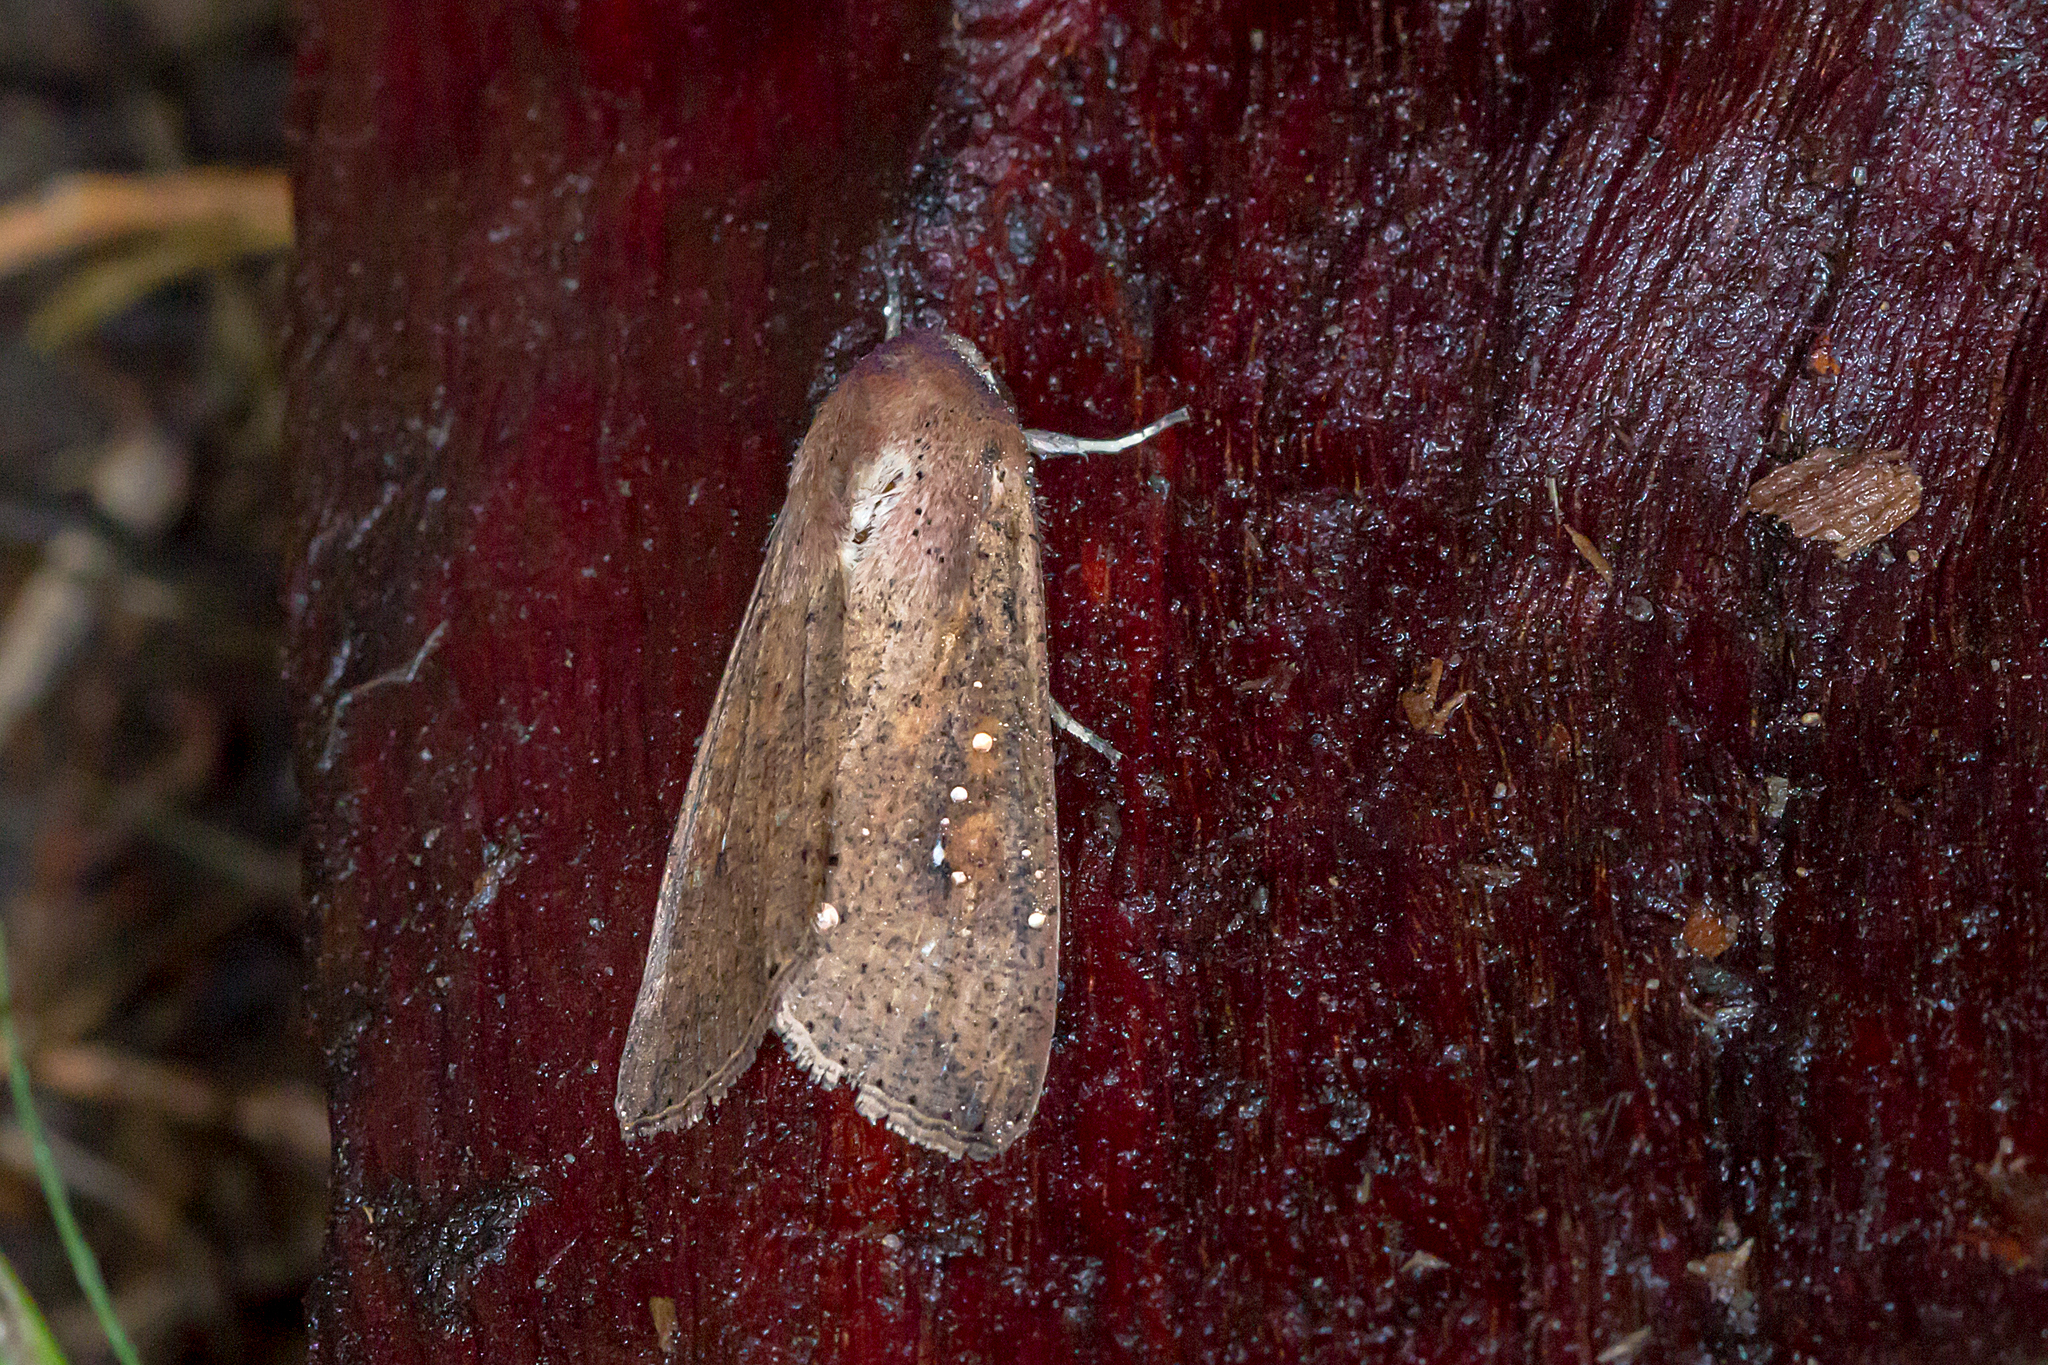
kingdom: Animalia
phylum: Arthropoda
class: Insecta
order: Lepidoptera
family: Noctuidae
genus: Mythimna
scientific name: Mythimna convecta
